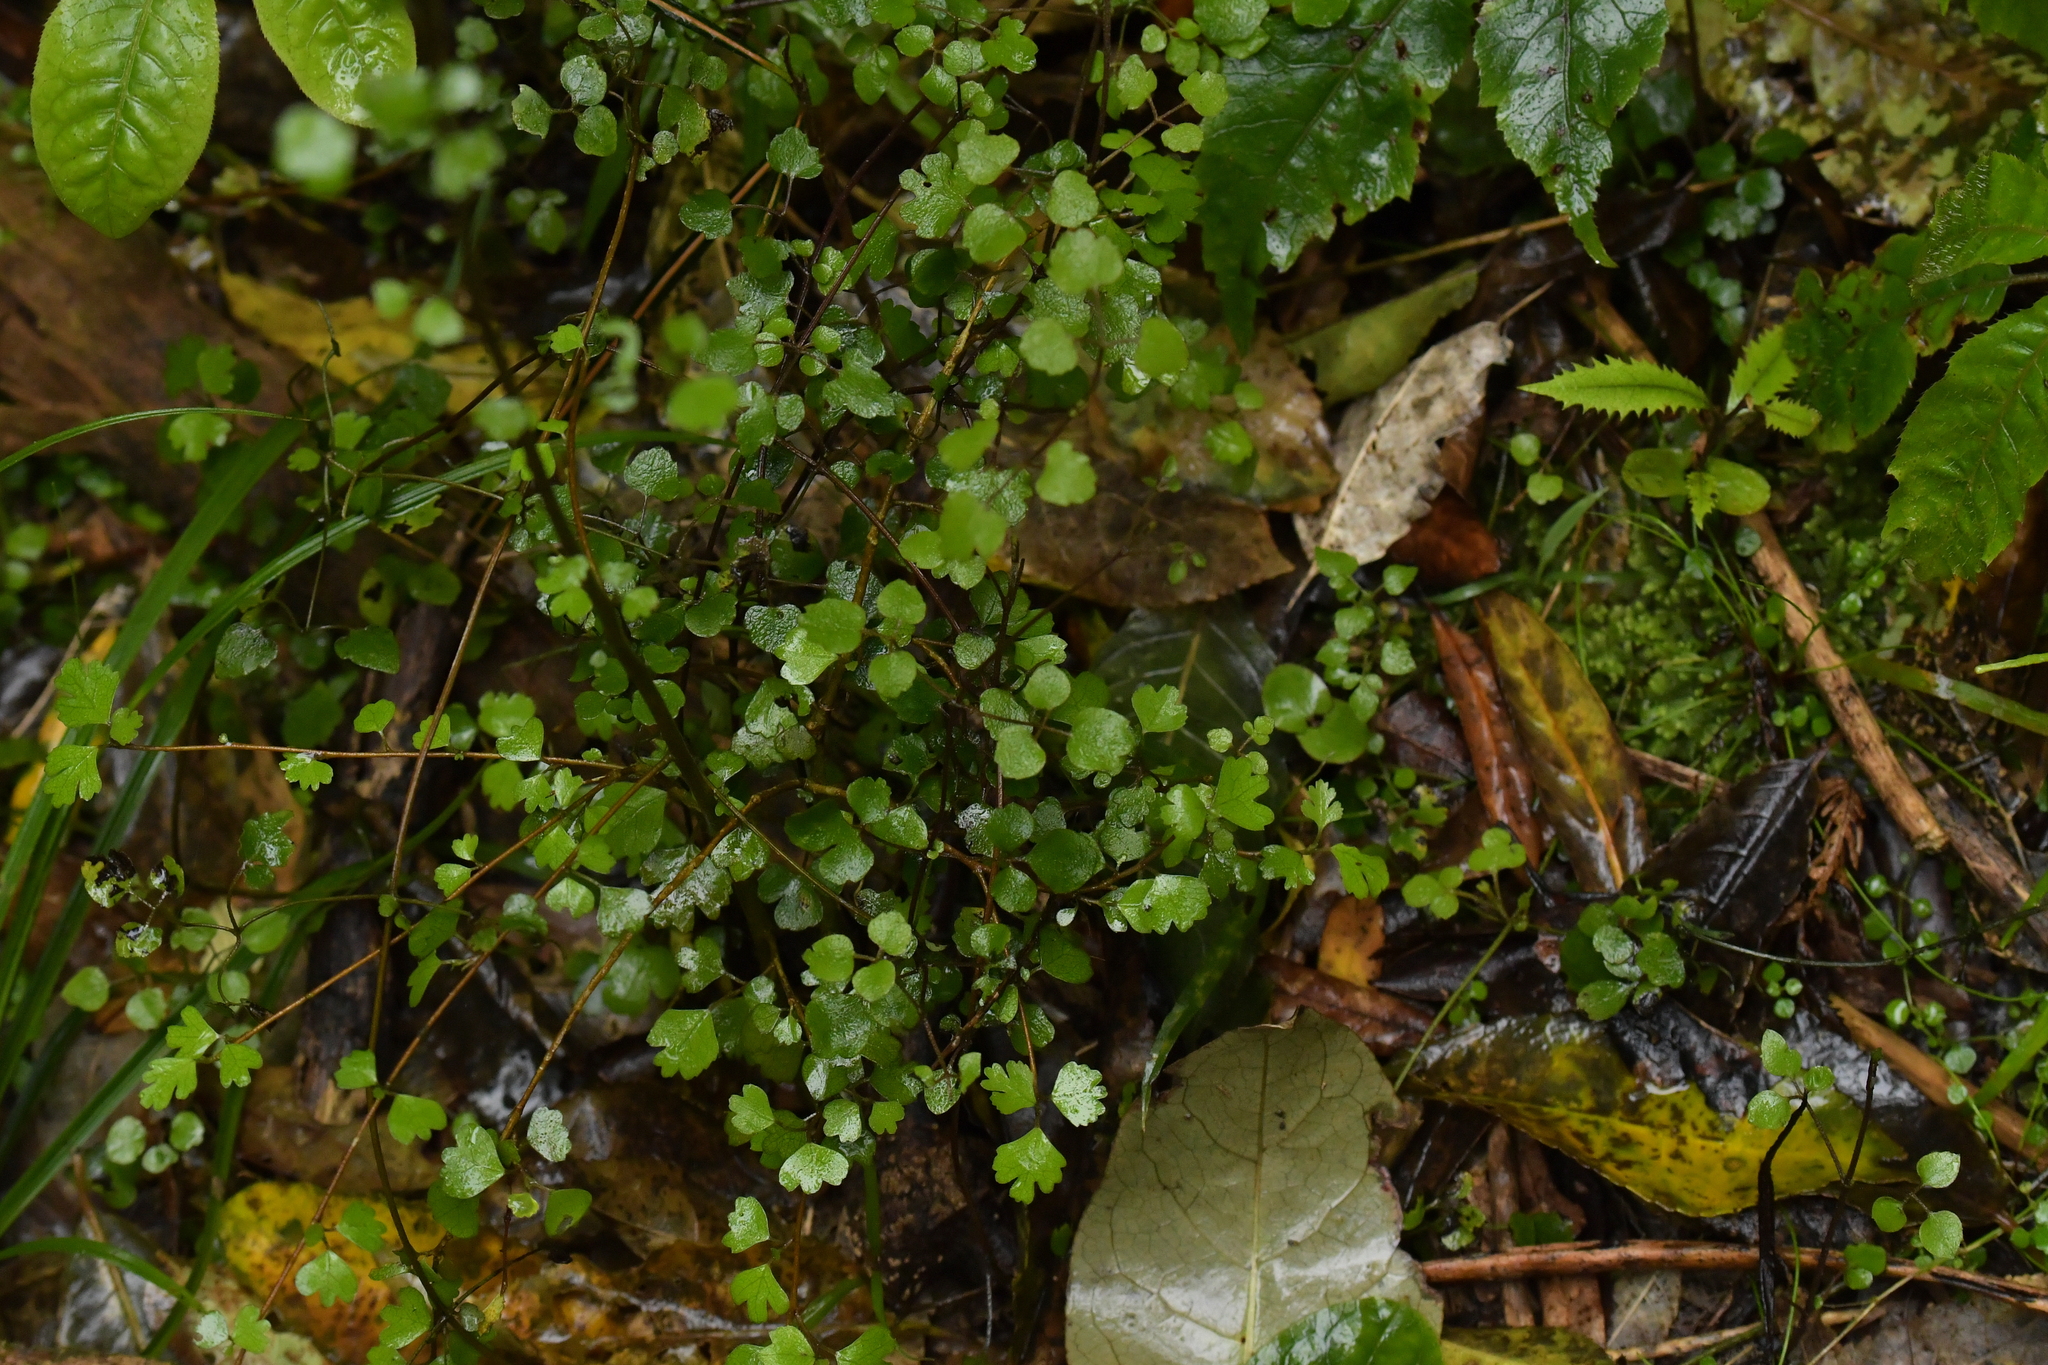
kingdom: Plantae
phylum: Tracheophyta
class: Magnoliopsida
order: Malvales
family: Malvaceae
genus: Hoheria
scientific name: Hoheria sexstylosa
